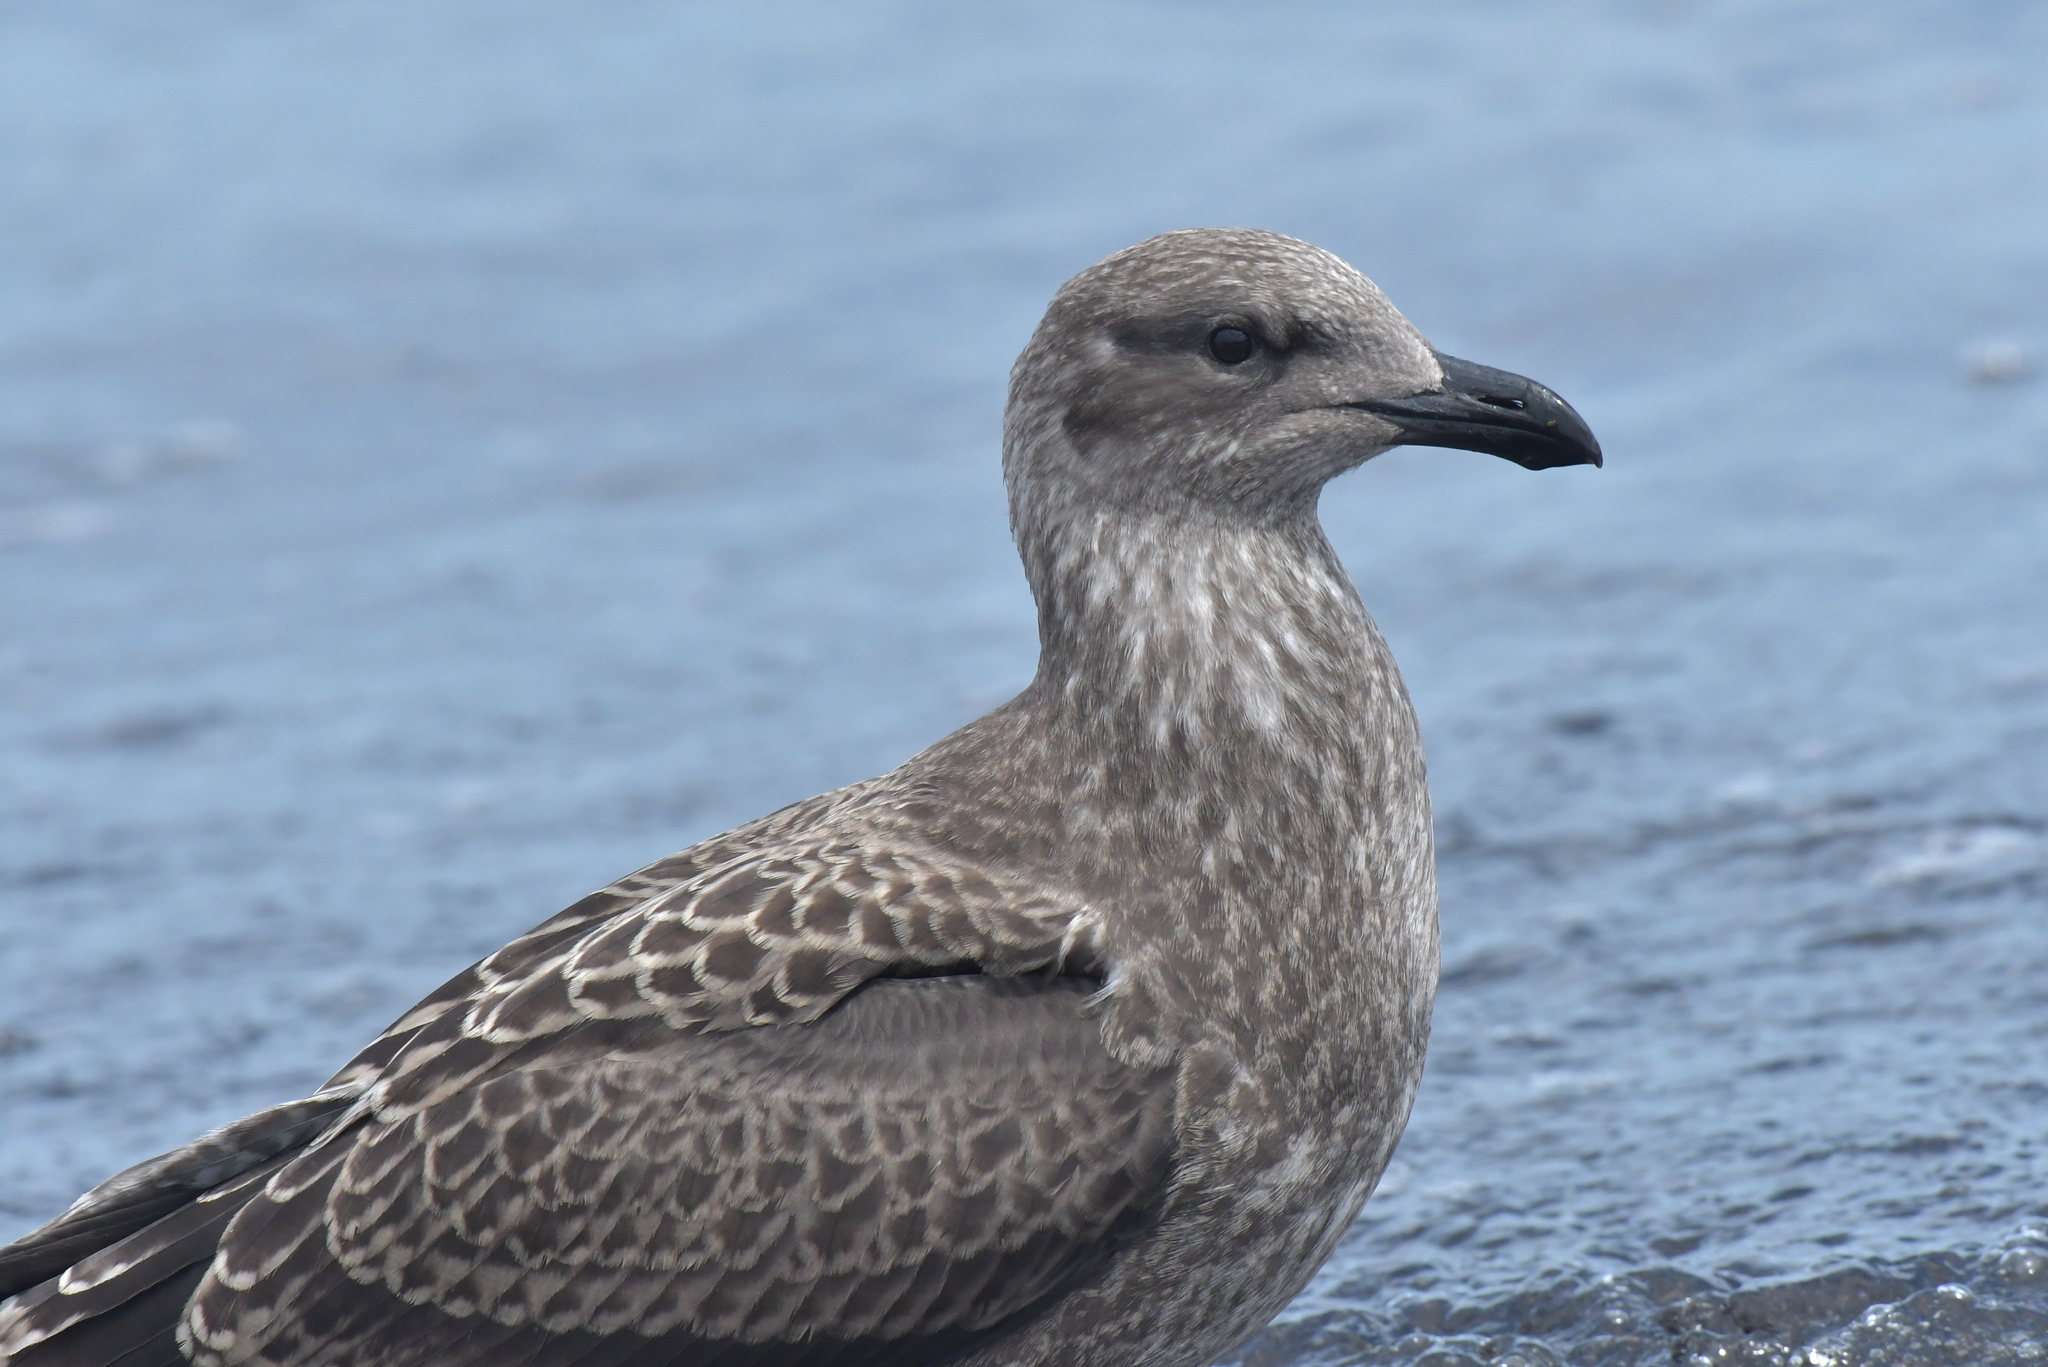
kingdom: Animalia
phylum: Chordata
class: Aves
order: Charadriiformes
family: Laridae
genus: Larus
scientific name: Larus dominicanus
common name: Kelp gull
